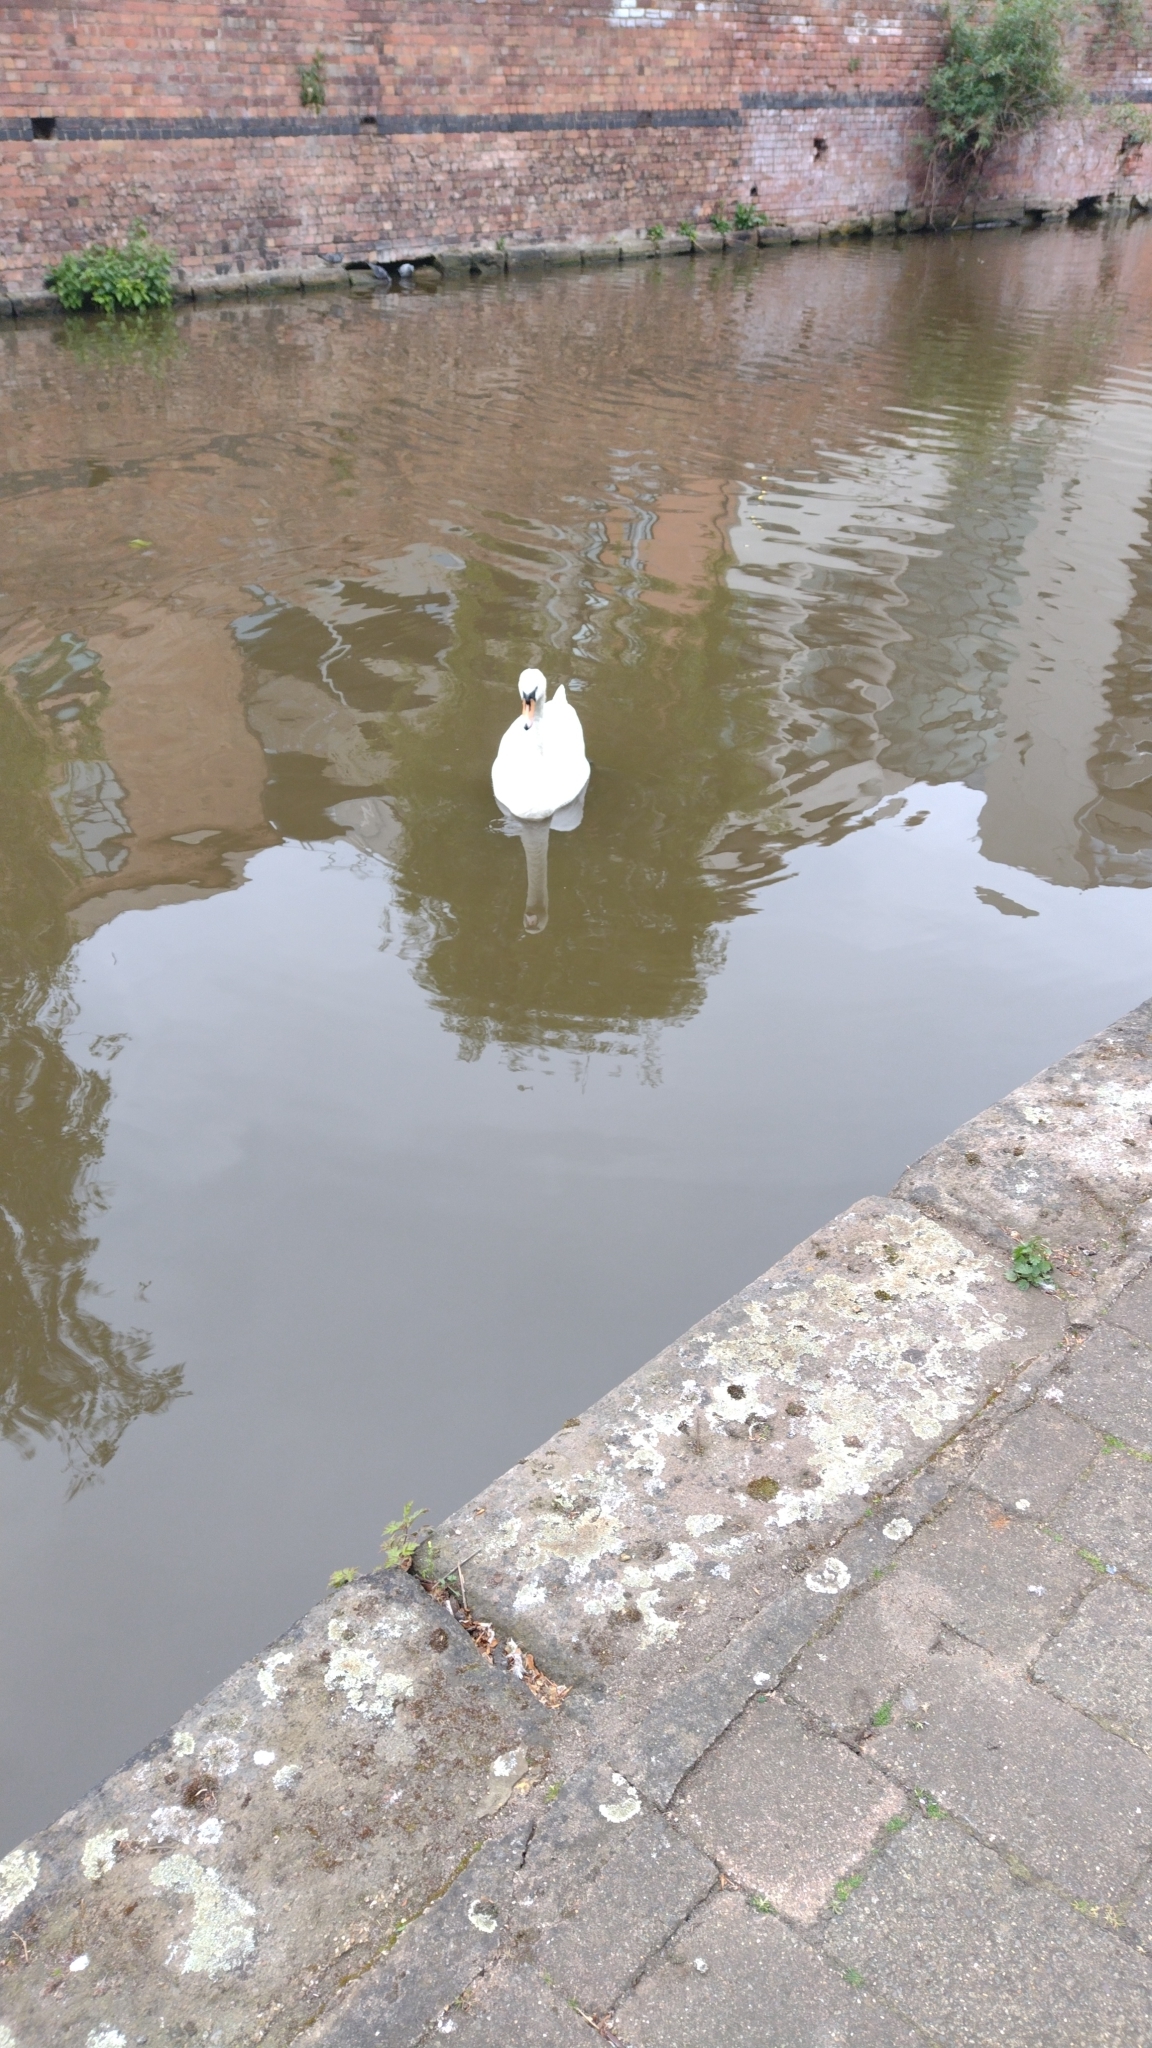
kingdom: Animalia
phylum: Chordata
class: Aves
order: Anseriformes
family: Anatidae
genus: Cygnus
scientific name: Cygnus olor
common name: Mute swan
